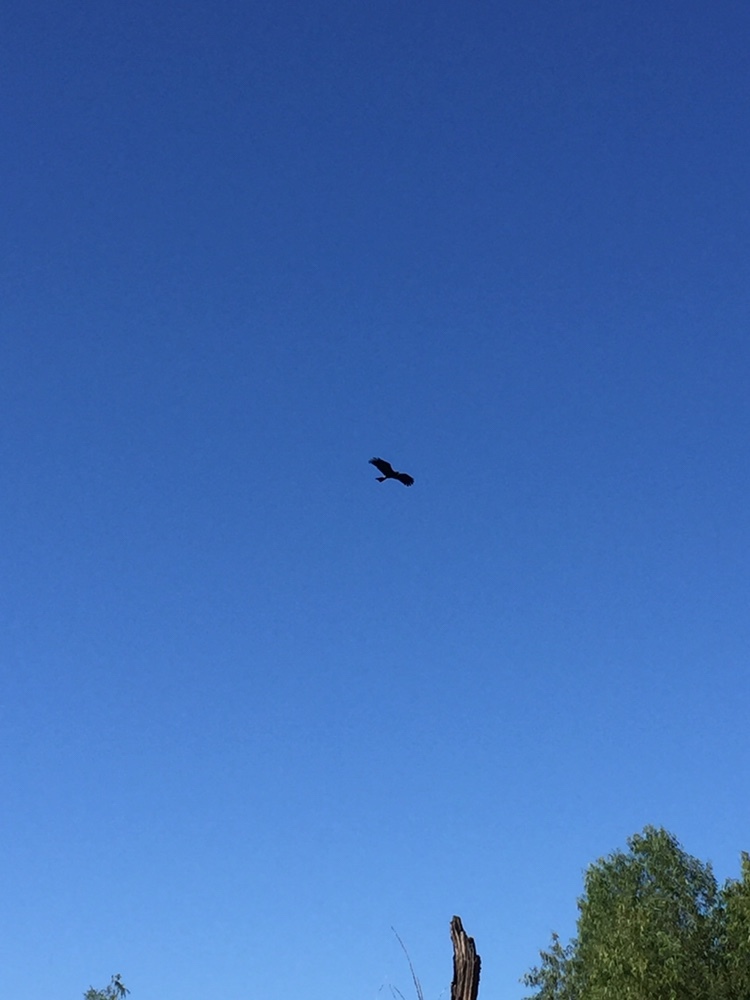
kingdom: Animalia
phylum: Chordata
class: Aves
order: Accipitriformes
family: Accipitridae
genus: Rostrhamus
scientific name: Rostrhamus sociabilis
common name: Snail kite
